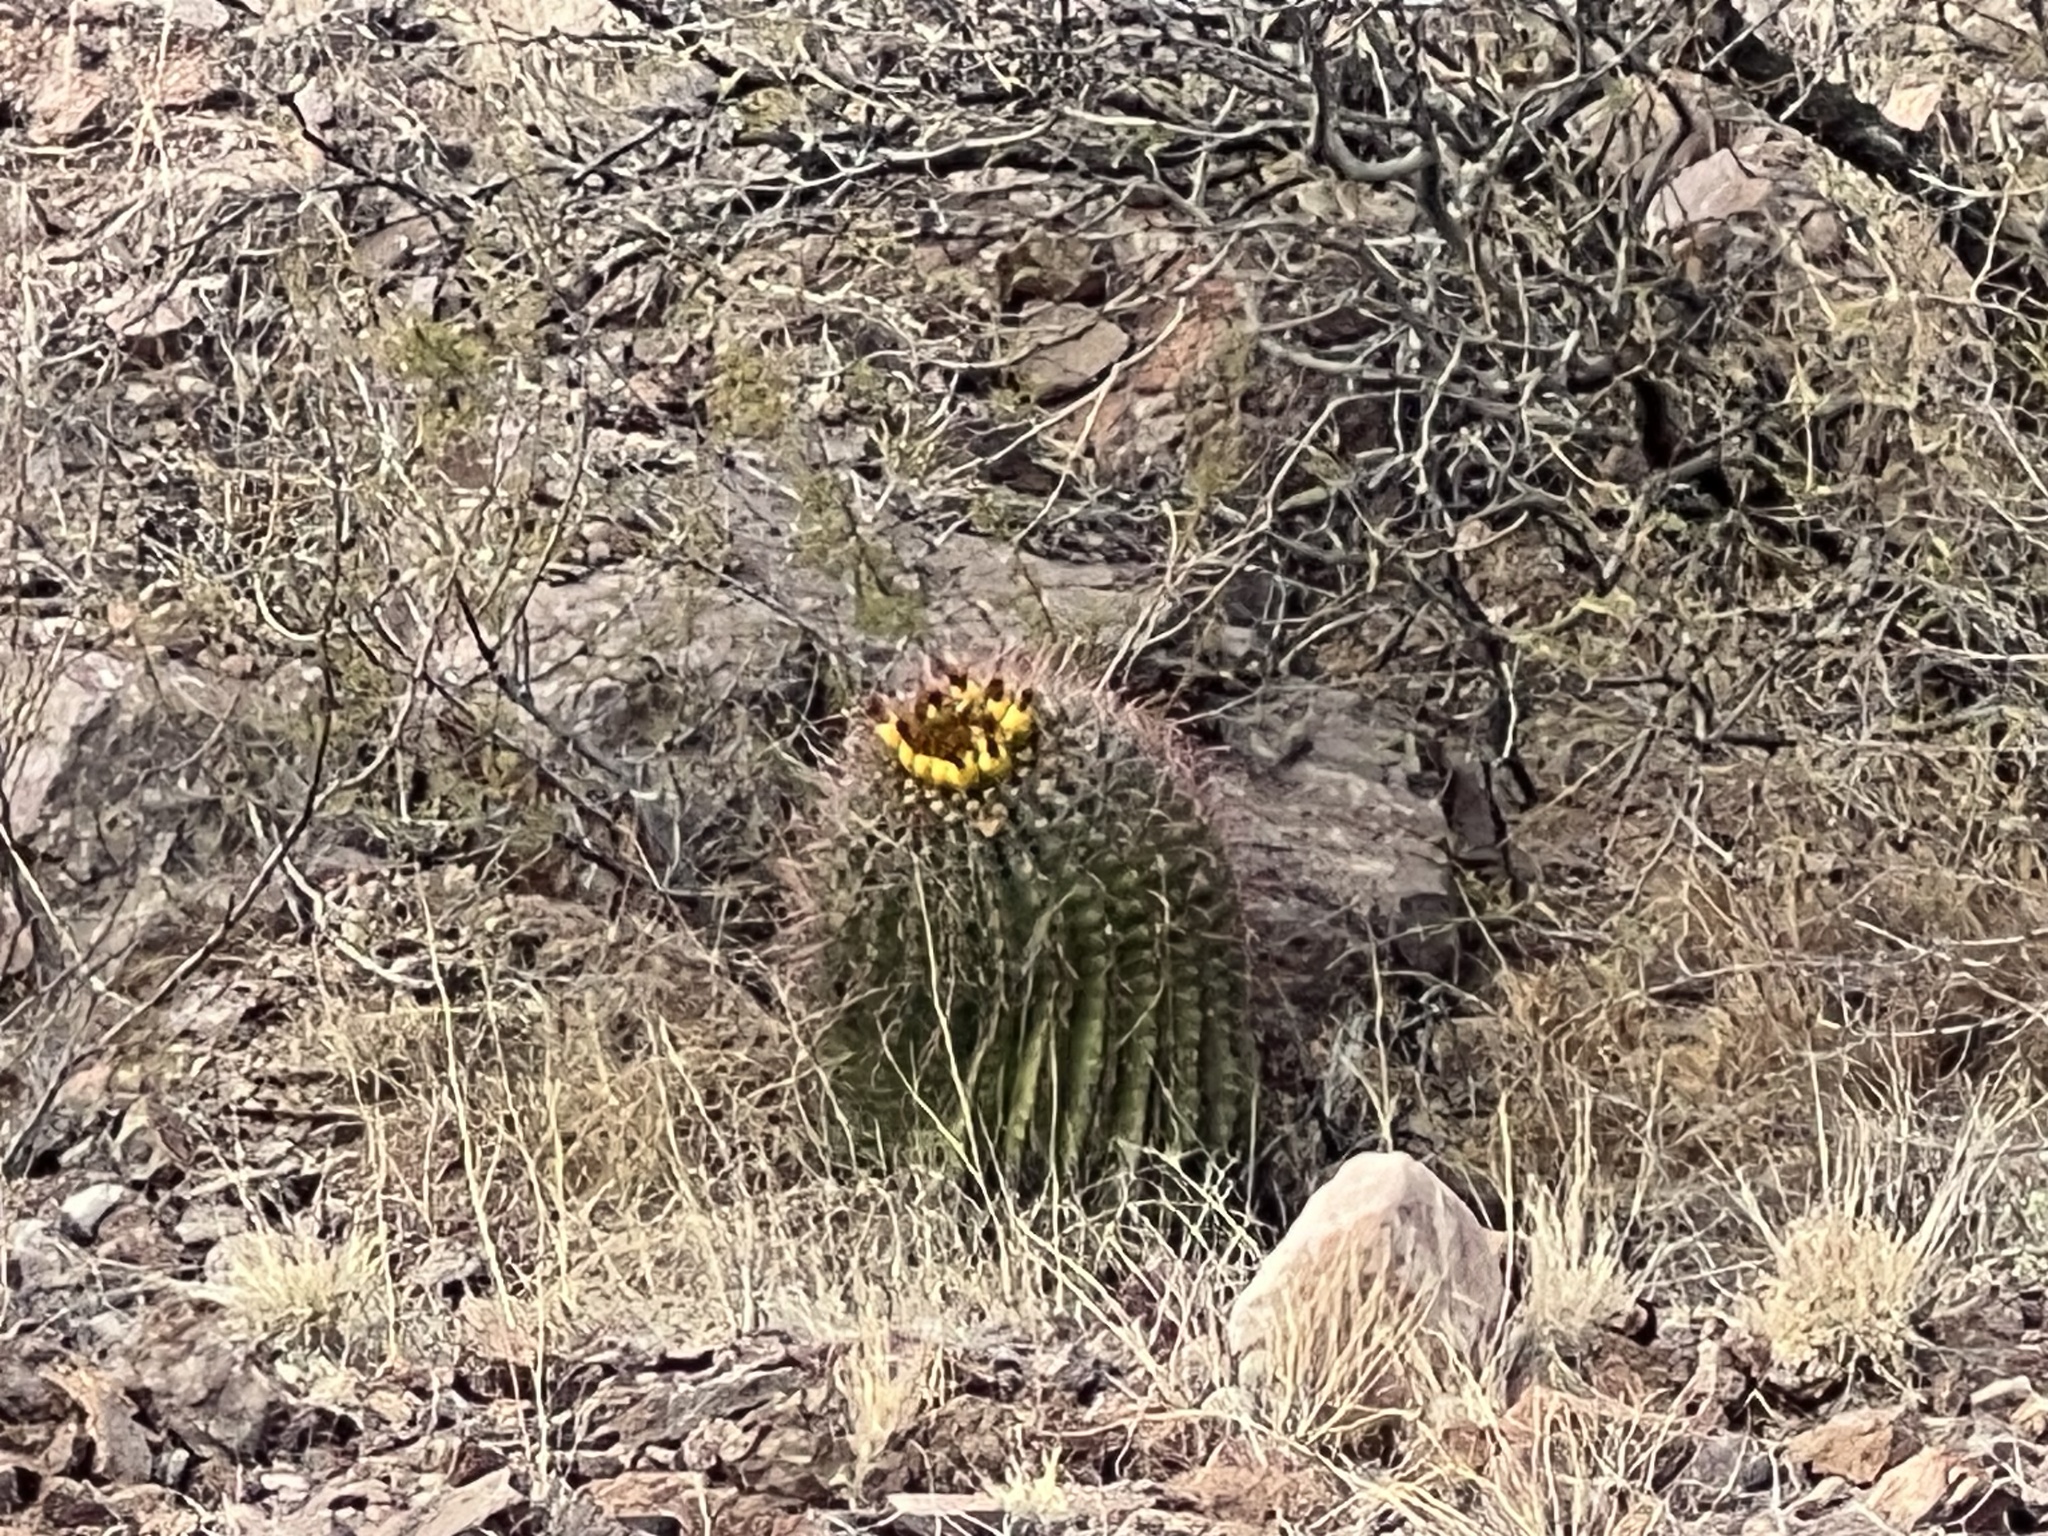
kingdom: Plantae
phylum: Tracheophyta
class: Magnoliopsida
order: Caryophyllales
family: Cactaceae
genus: Ferocactus
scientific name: Ferocactus wislizeni
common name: Candy barrel cactus
